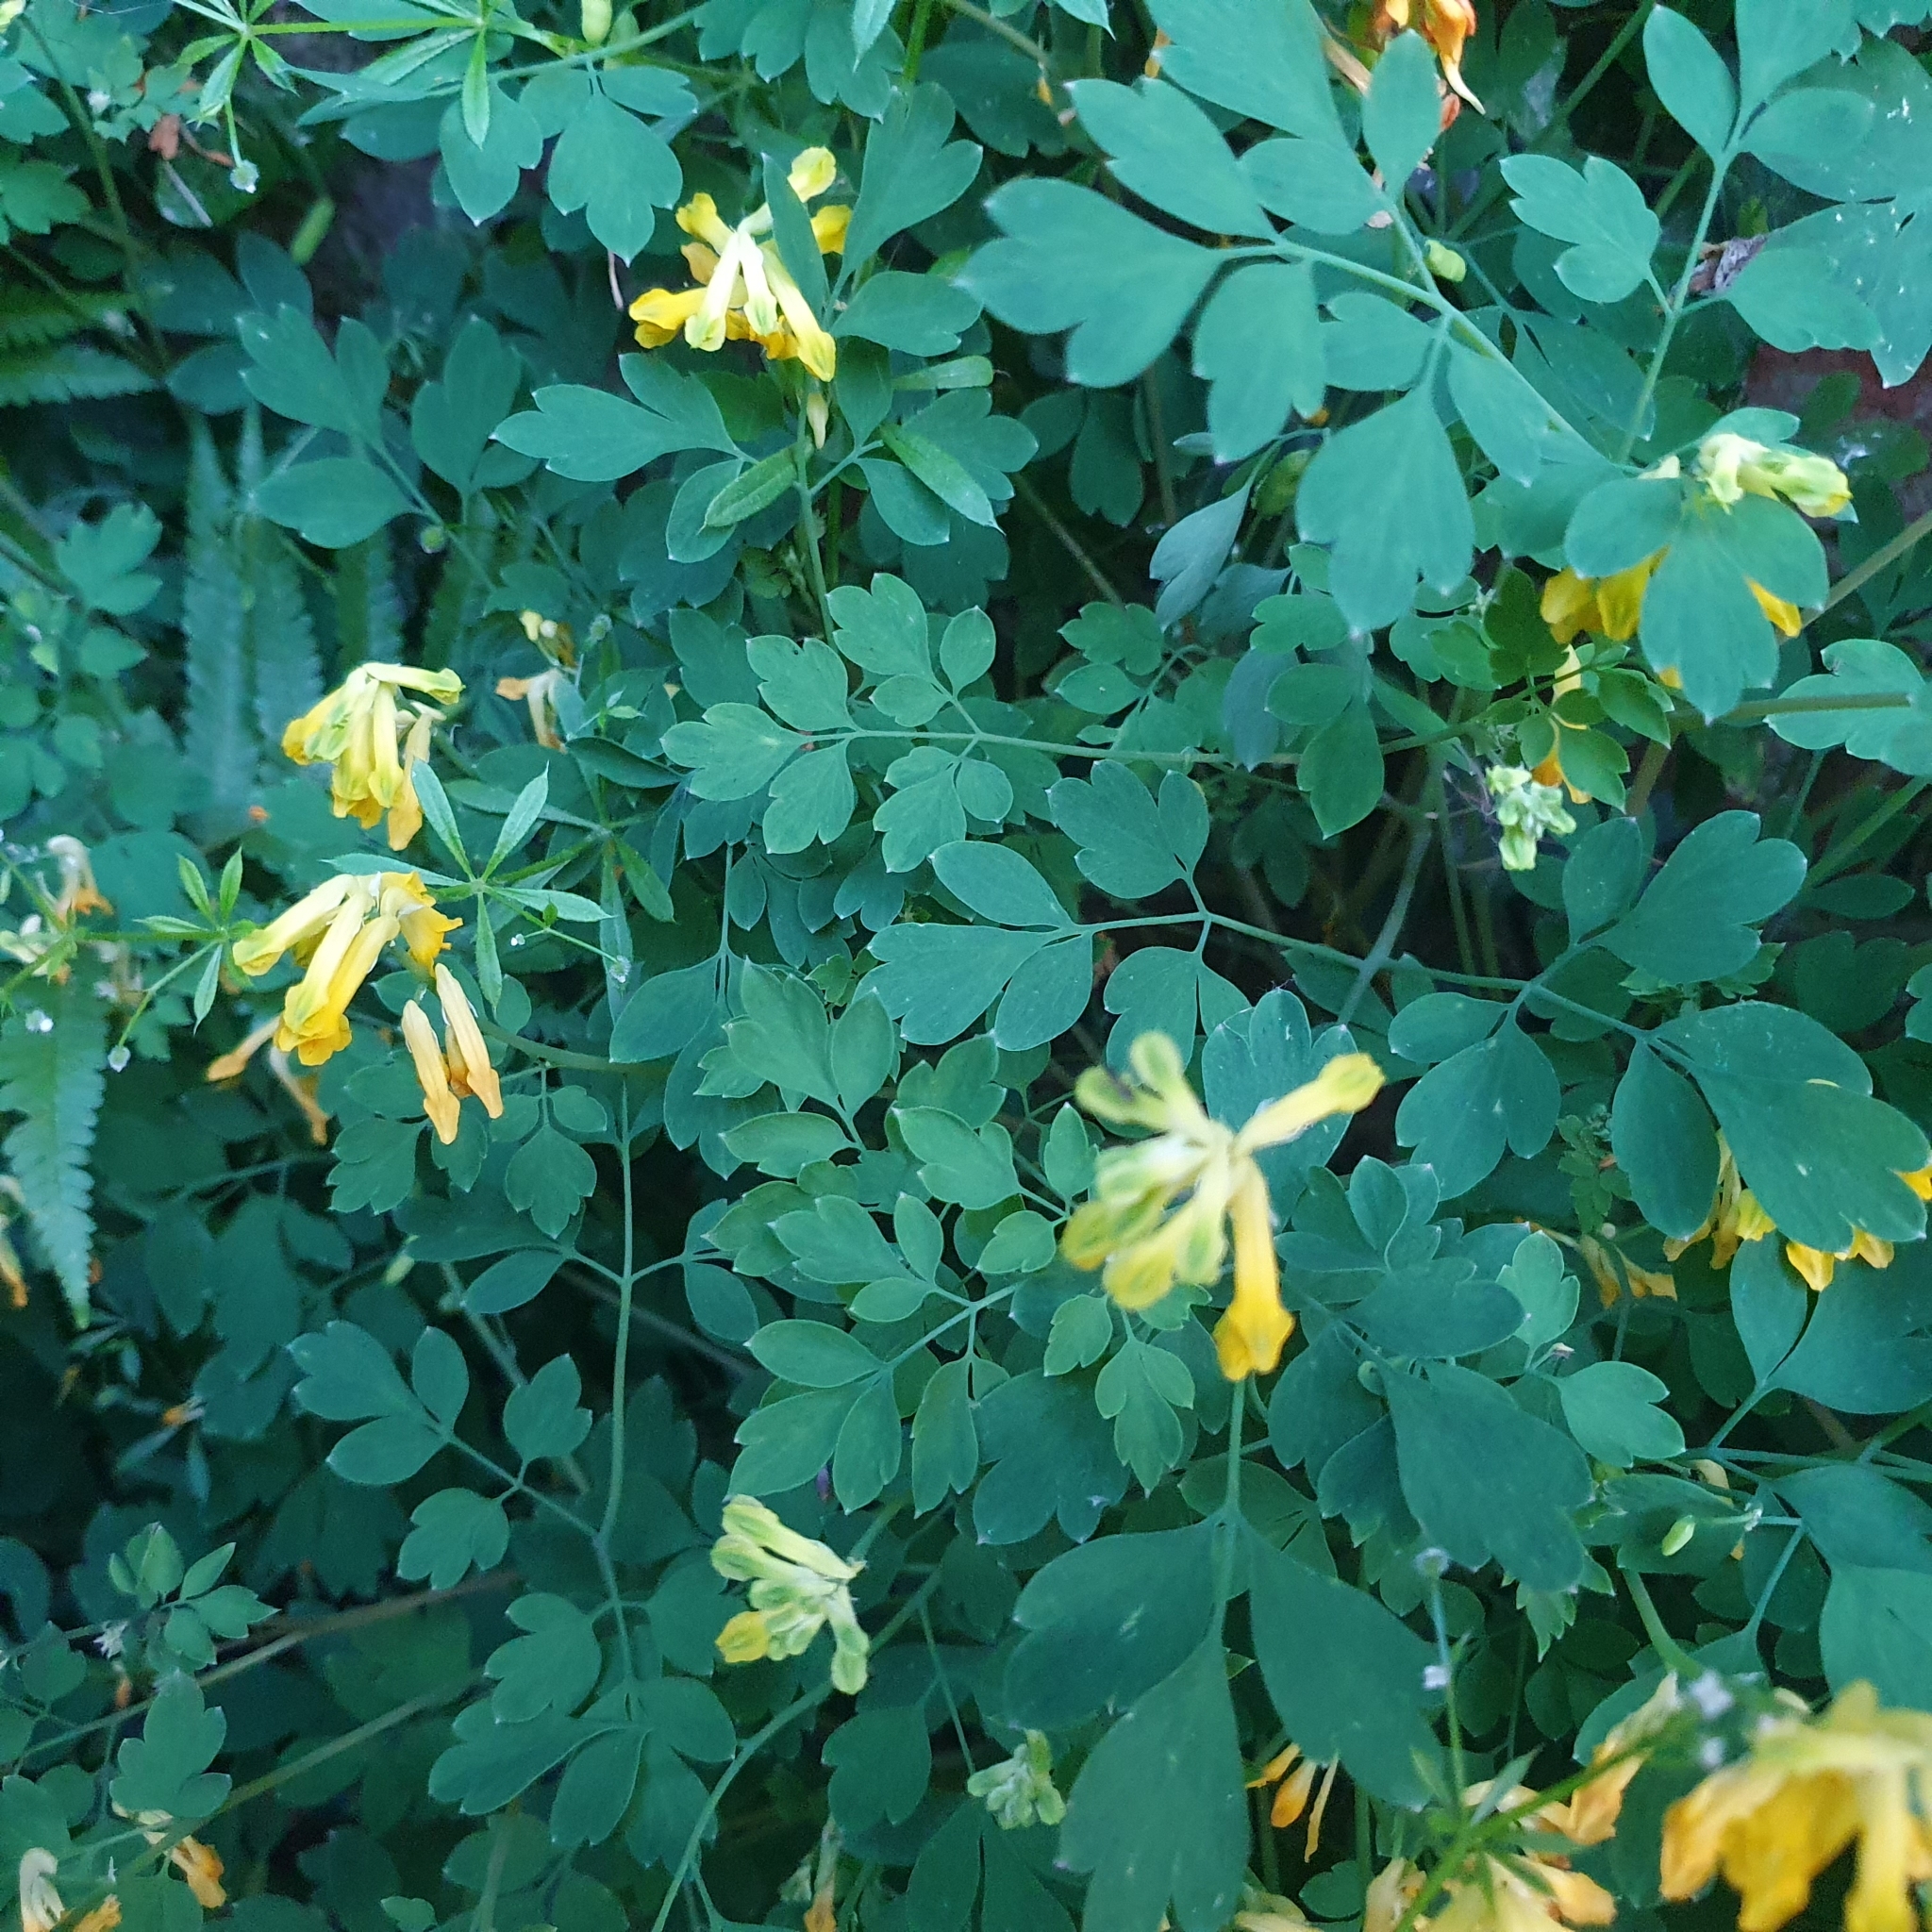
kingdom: Plantae
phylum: Tracheophyta
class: Magnoliopsida
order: Ranunculales
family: Papaveraceae
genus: Pseudofumaria
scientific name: Pseudofumaria lutea
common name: Yellow corydalis
